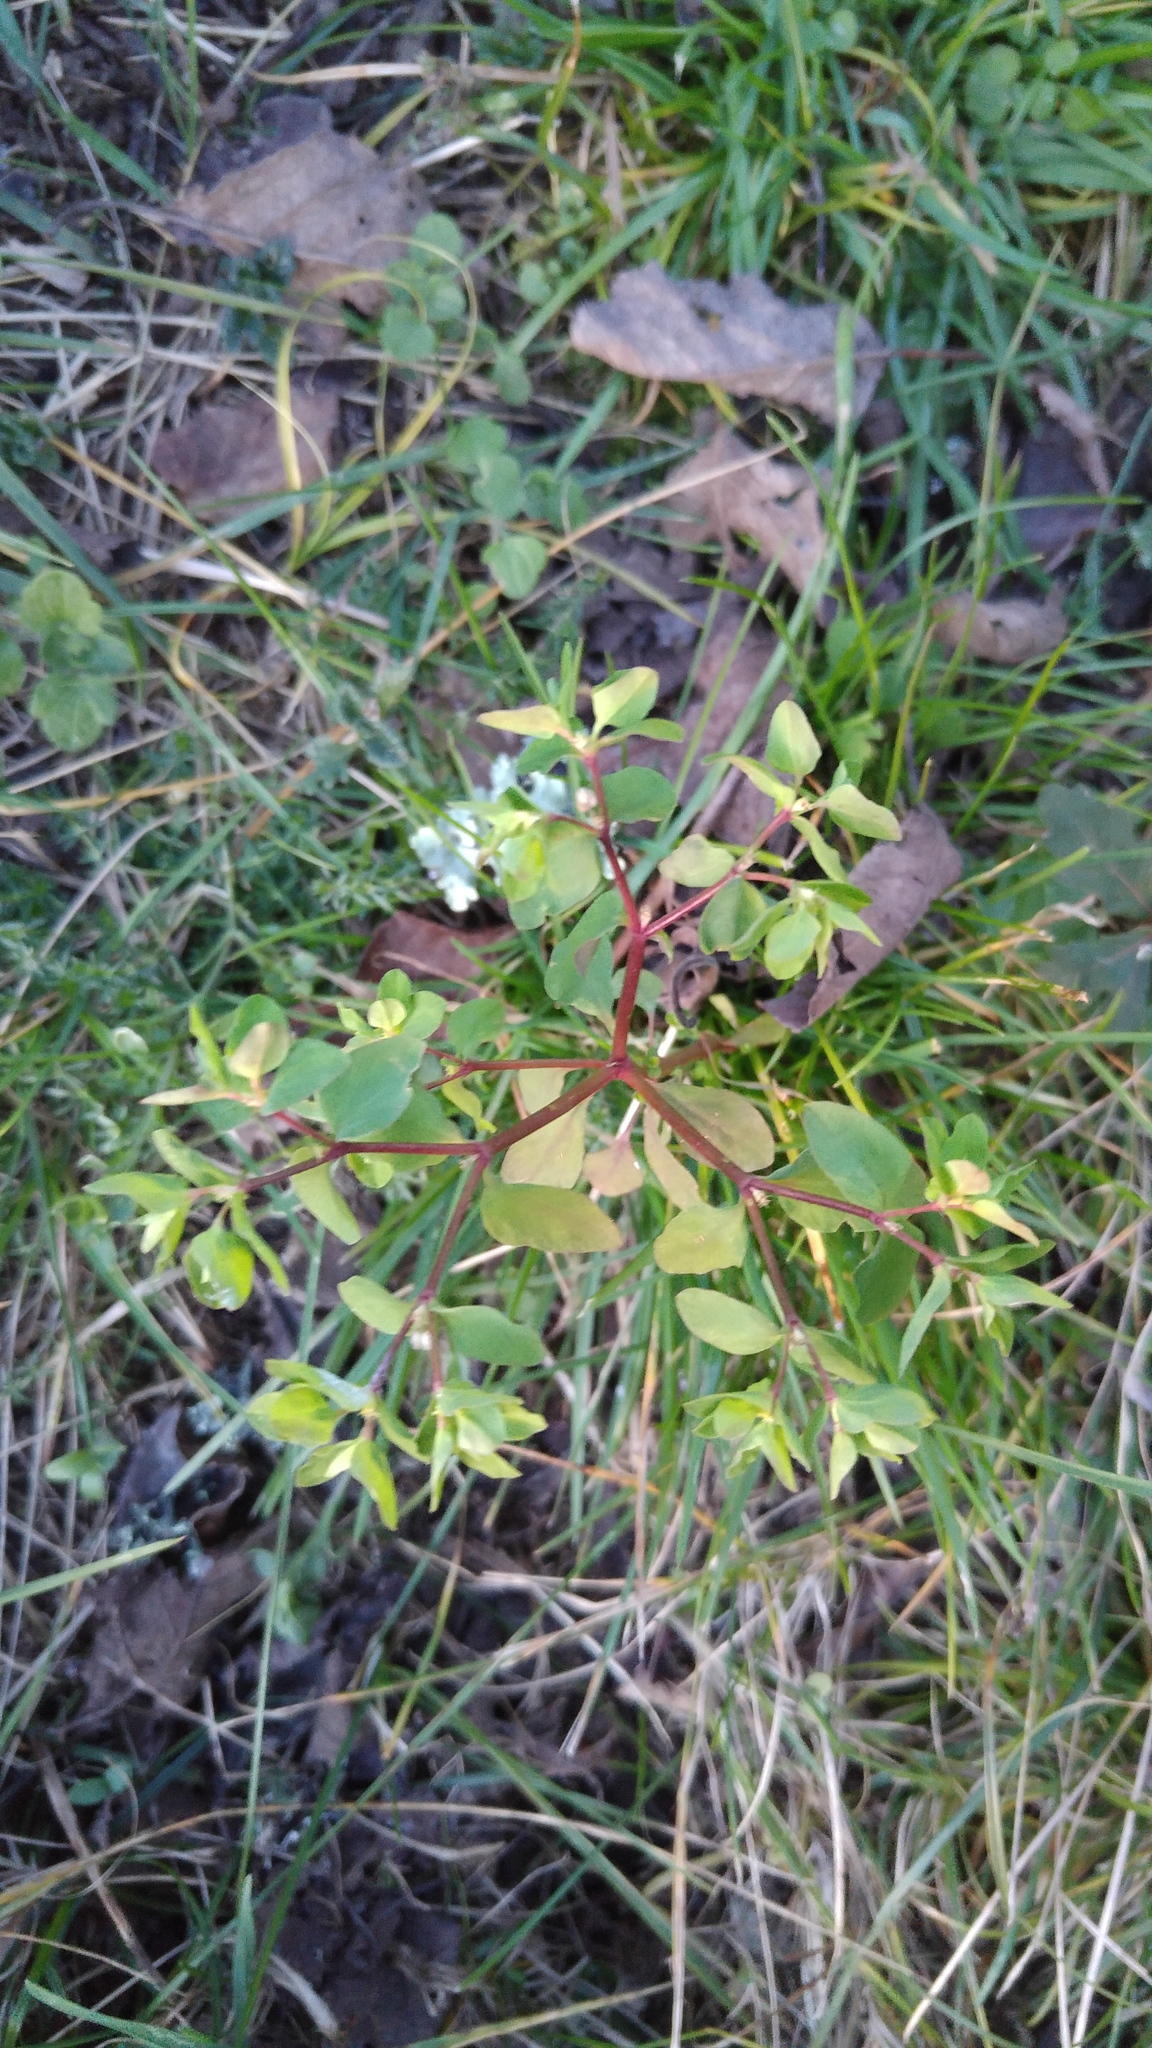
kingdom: Plantae
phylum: Tracheophyta
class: Magnoliopsida
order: Malpighiales
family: Euphorbiaceae
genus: Euphorbia
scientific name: Euphorbia peplus
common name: Petty spurge
